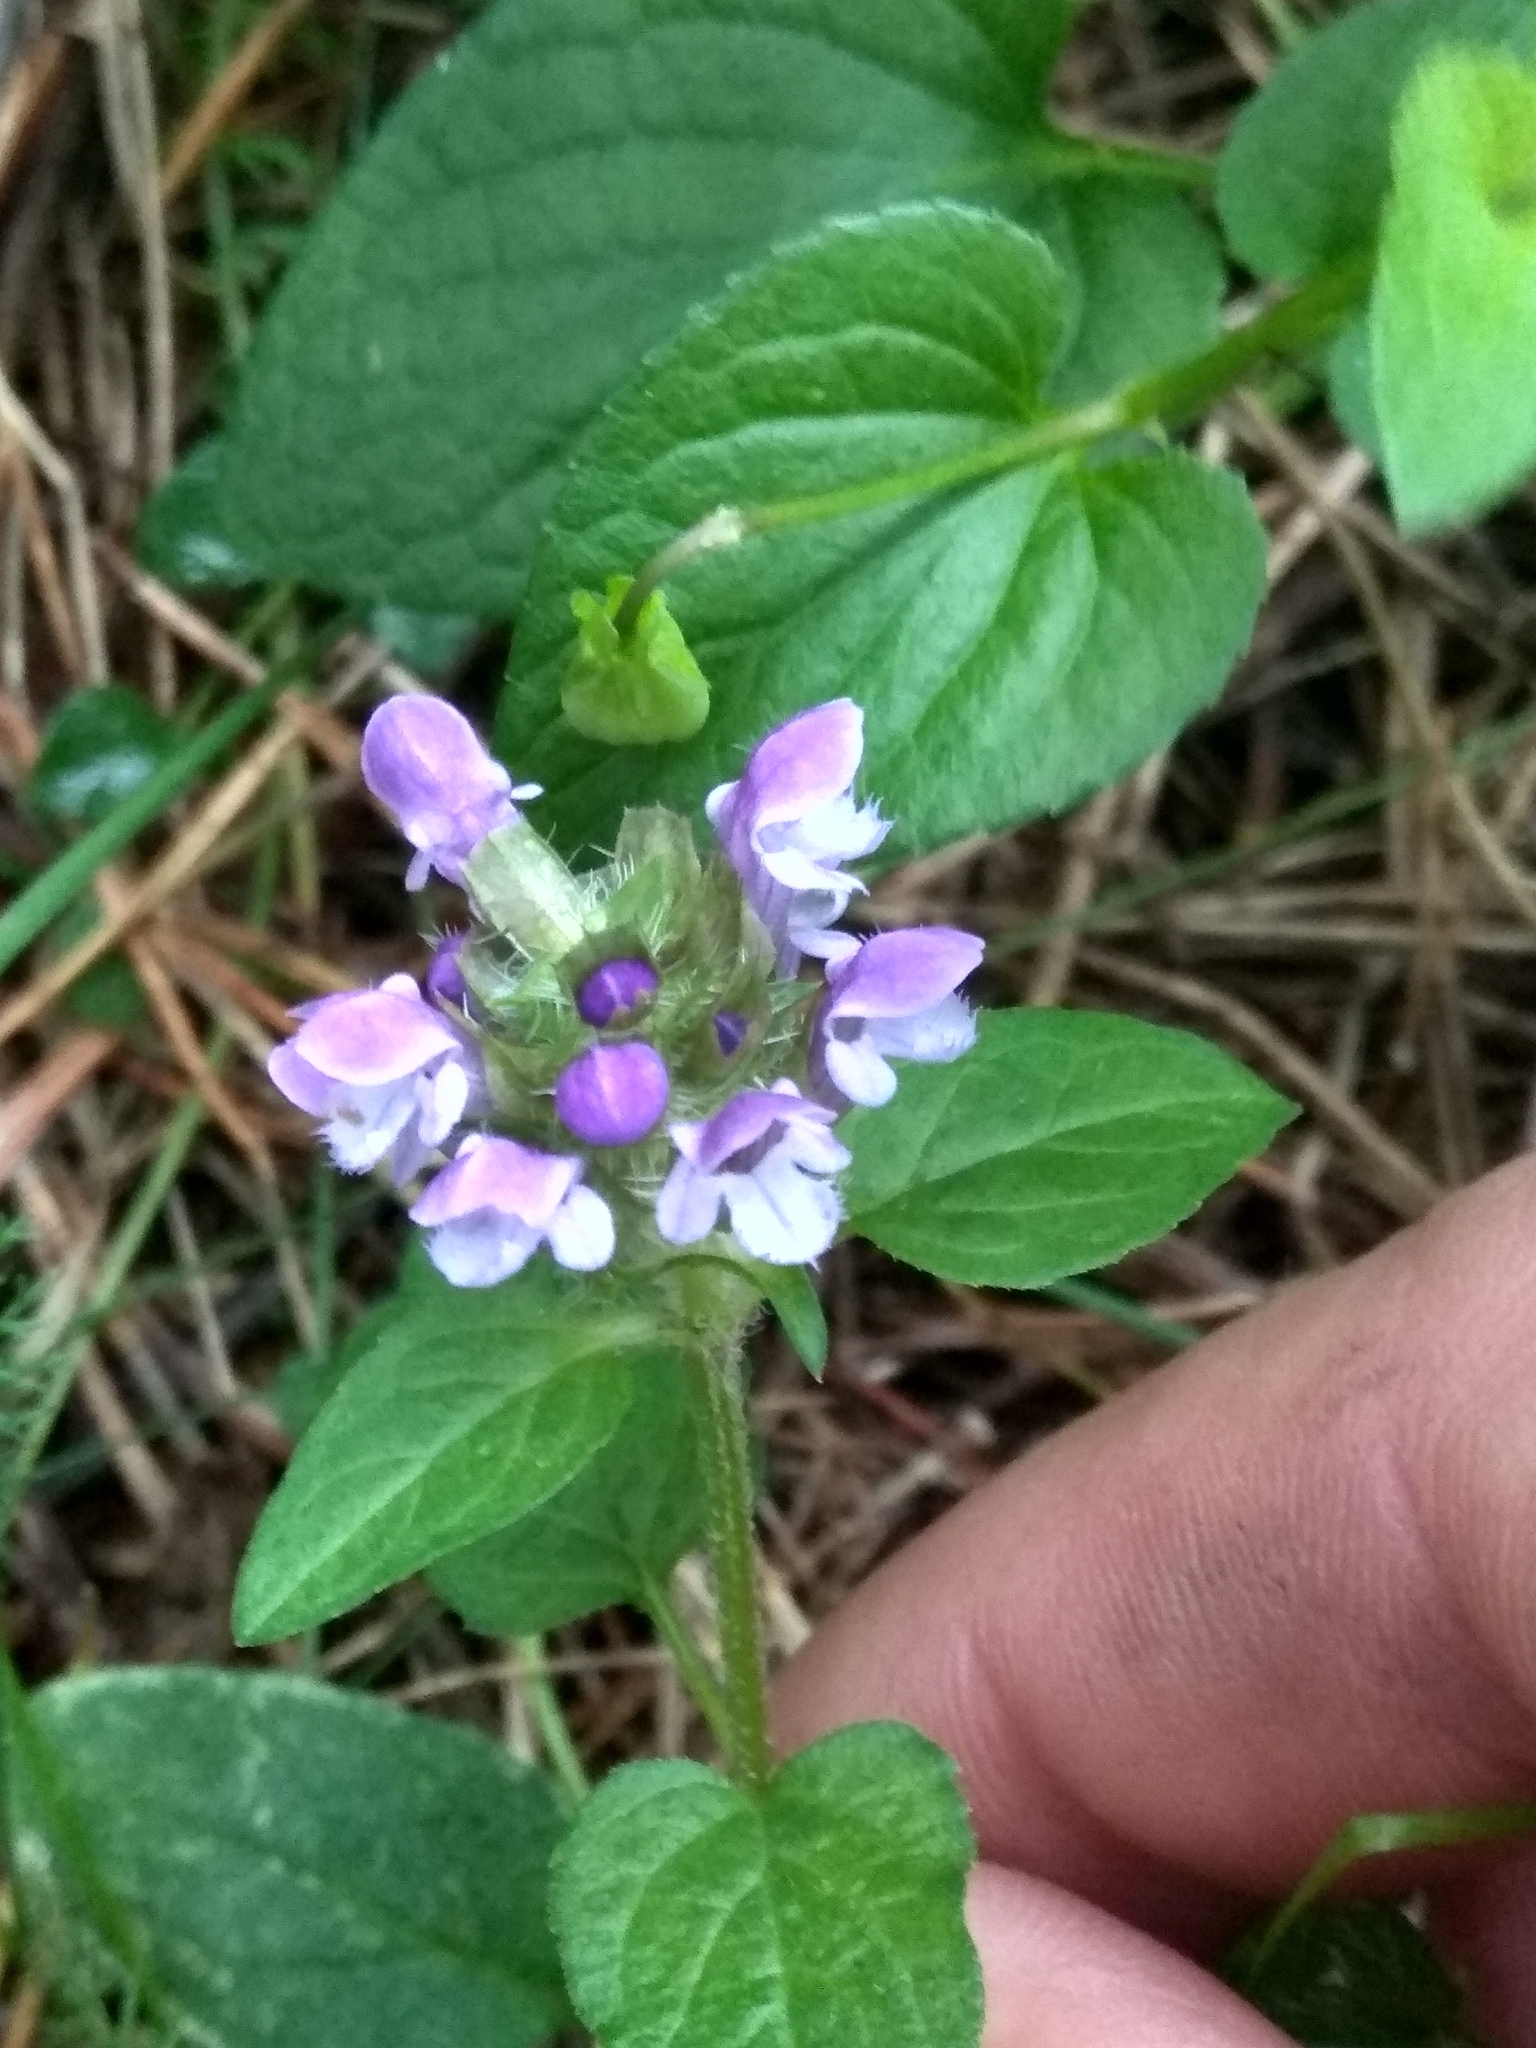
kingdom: Plantae
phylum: Tracheophyta
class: Magnoliopsida
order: Lamiales
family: Lamiaceae
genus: Prunella
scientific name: Prunella vulgaris
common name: Heal-all
